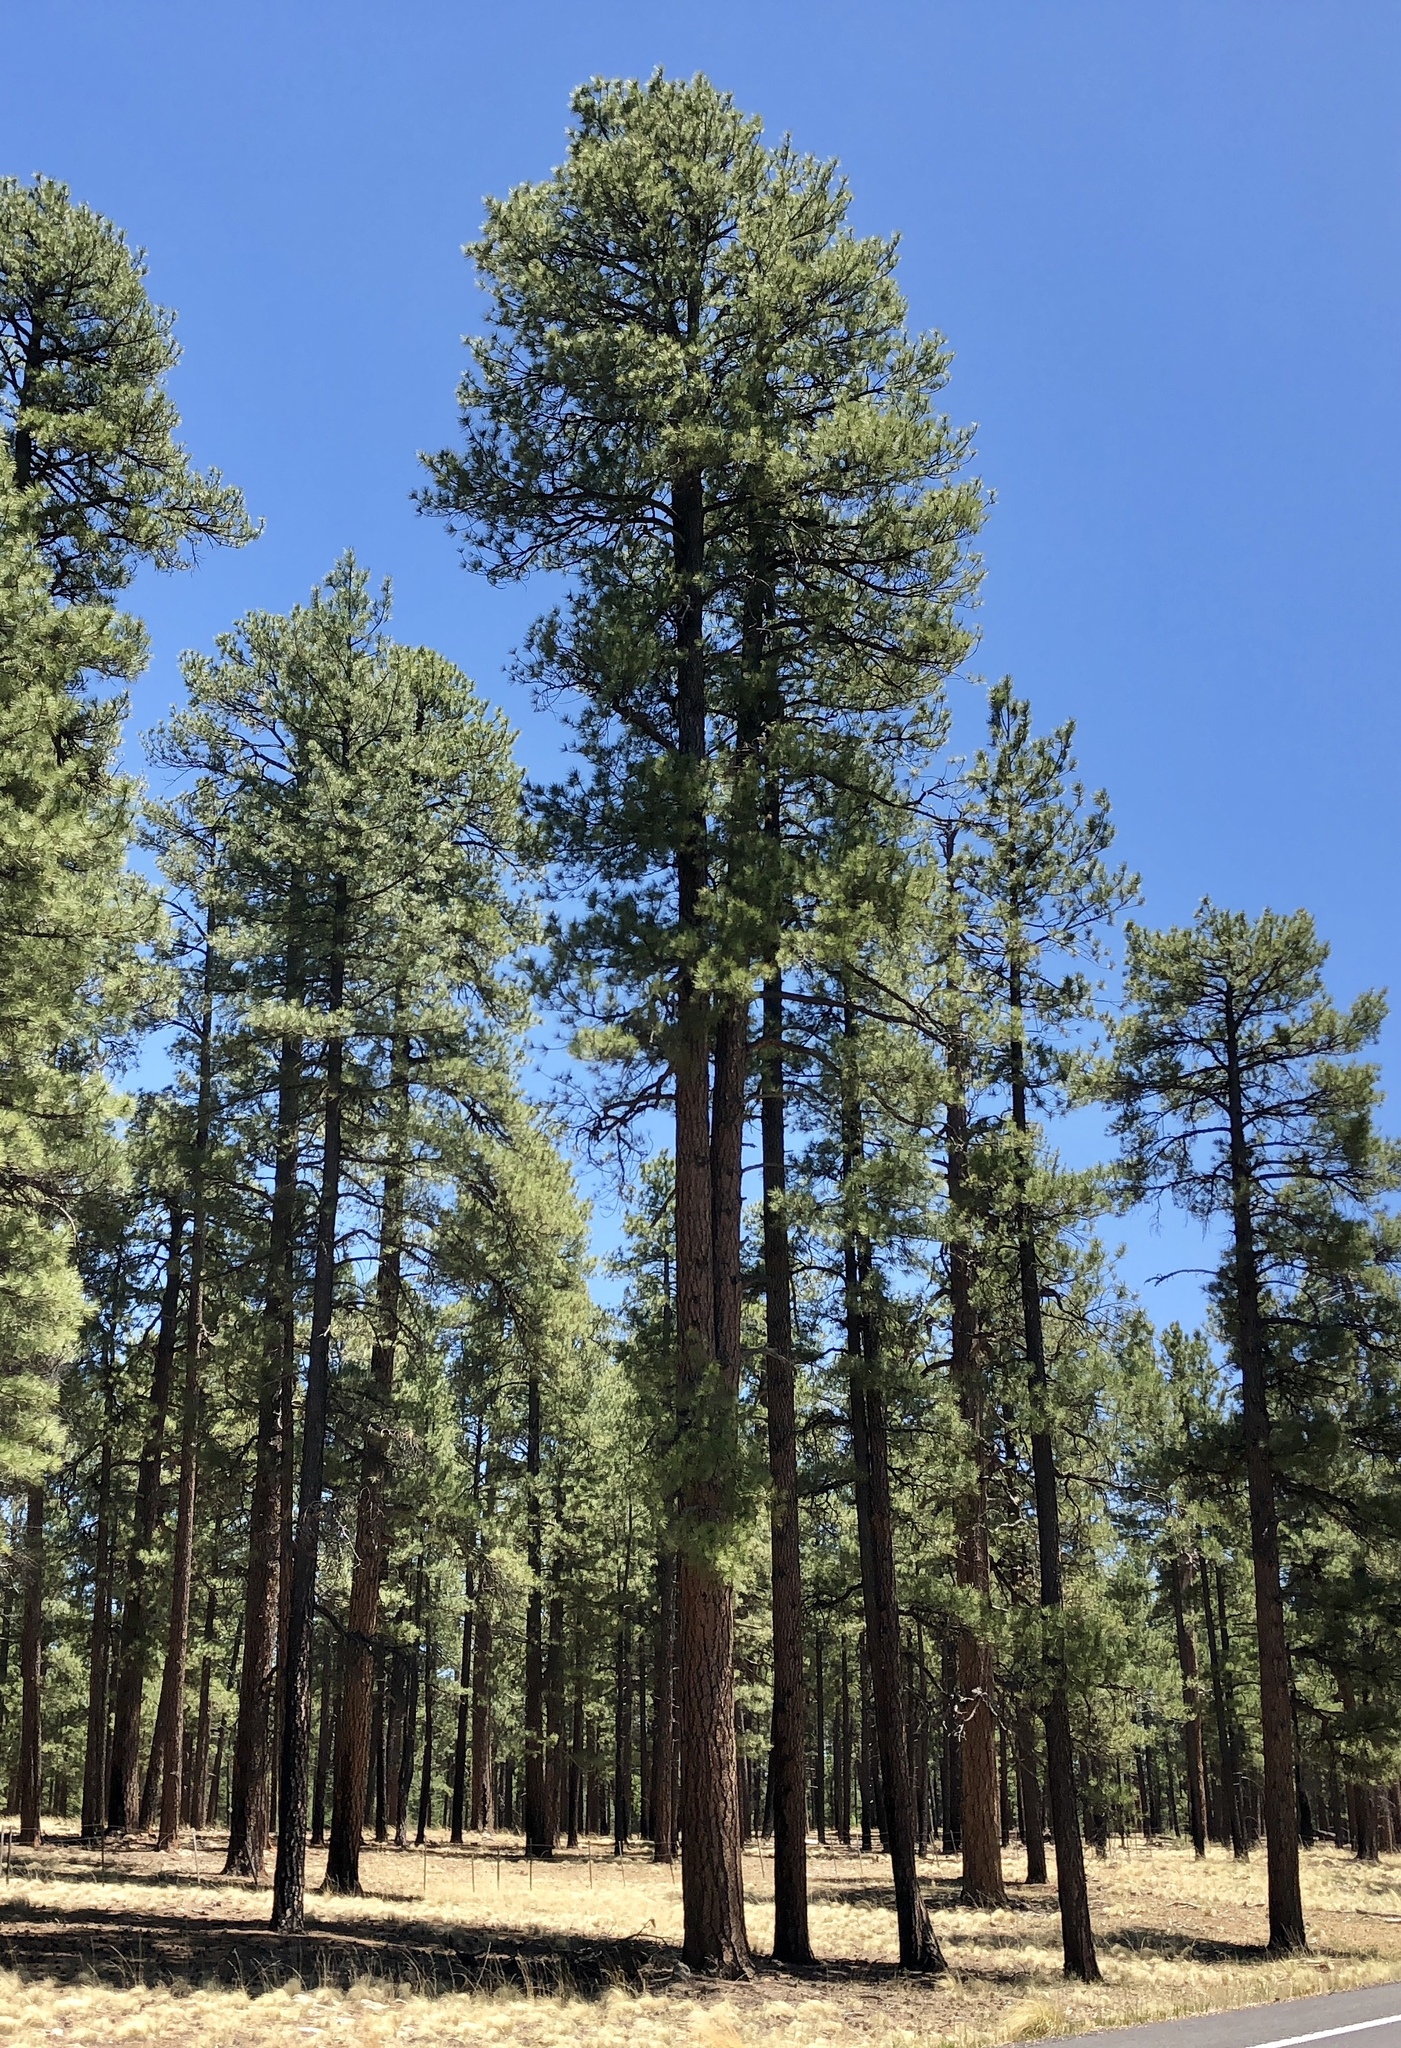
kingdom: Plantae
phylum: Tracheophyta
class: Pinopsida
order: Pinales
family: Pinaceae
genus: Pinus
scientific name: Pinus ponderosa
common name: Western yellow-pine
